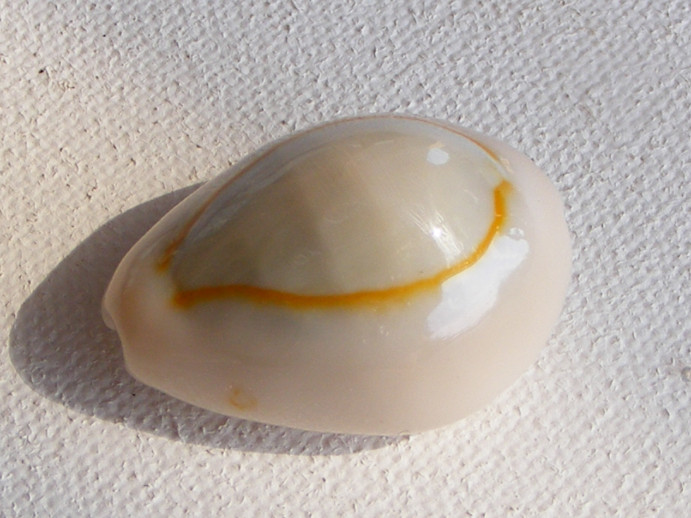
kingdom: Animalia
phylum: Mollusca
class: Gastropoda
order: Littorinimorpha
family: Cypraeidae
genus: Monetaria
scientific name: Monetaria annulus
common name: Ring cowrie
